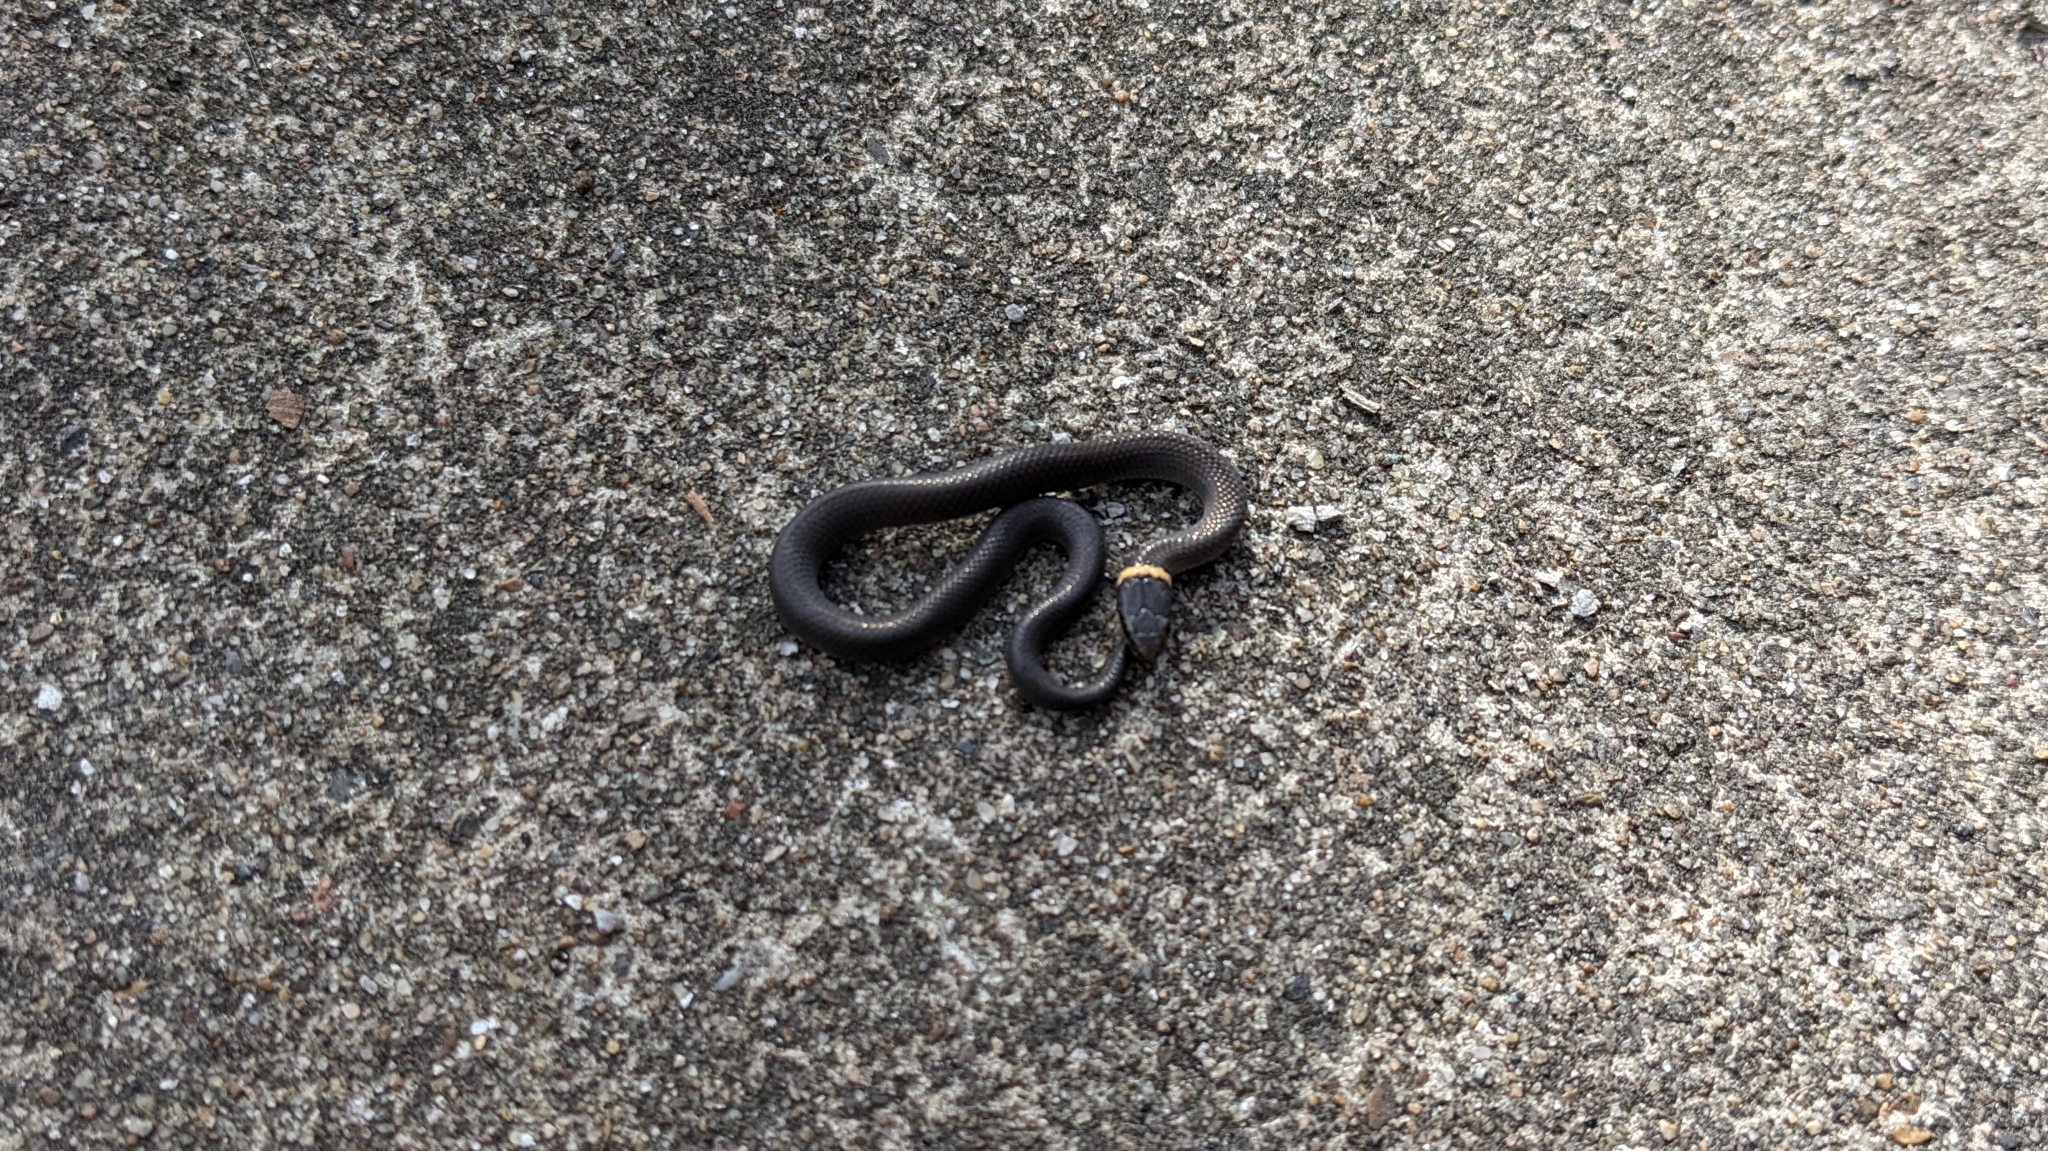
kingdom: Animalia
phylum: Chordata
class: Squamata
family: Colubridae
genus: Diadophis
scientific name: Diadophis punctatus
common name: Ringneck snake
